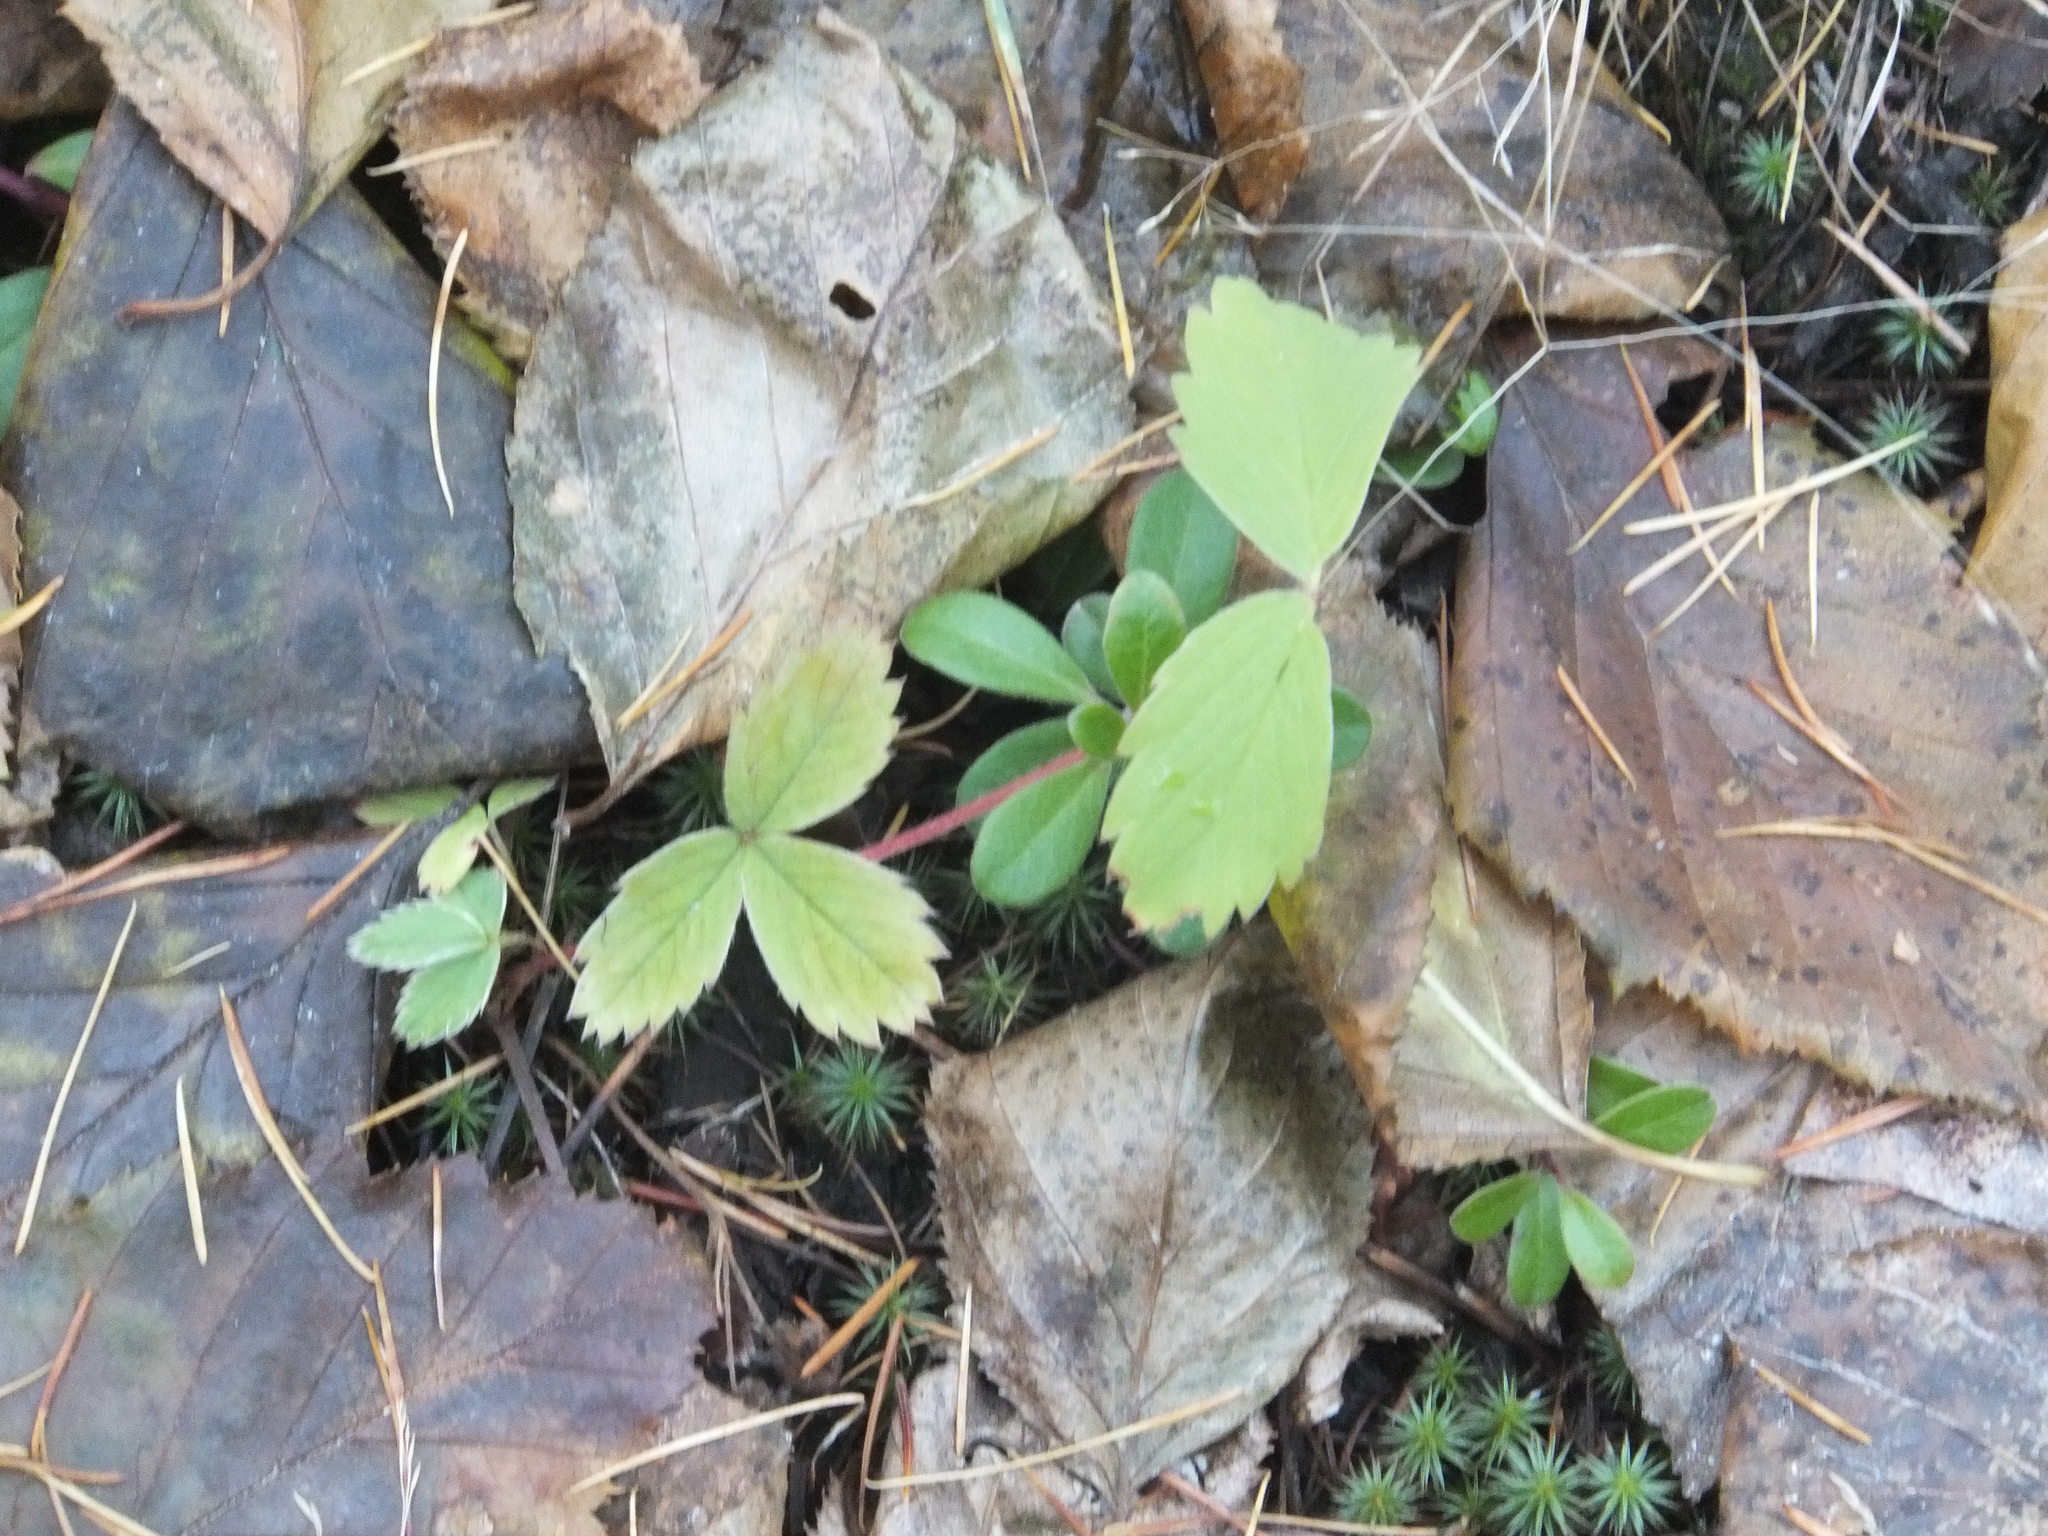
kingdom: Plantae
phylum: Tracheophyta
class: Magnoliopsida
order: Rosales
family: Rosaceae
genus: Fragaria
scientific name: Fragaria virginiana
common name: Thickleaved wild strawberry
